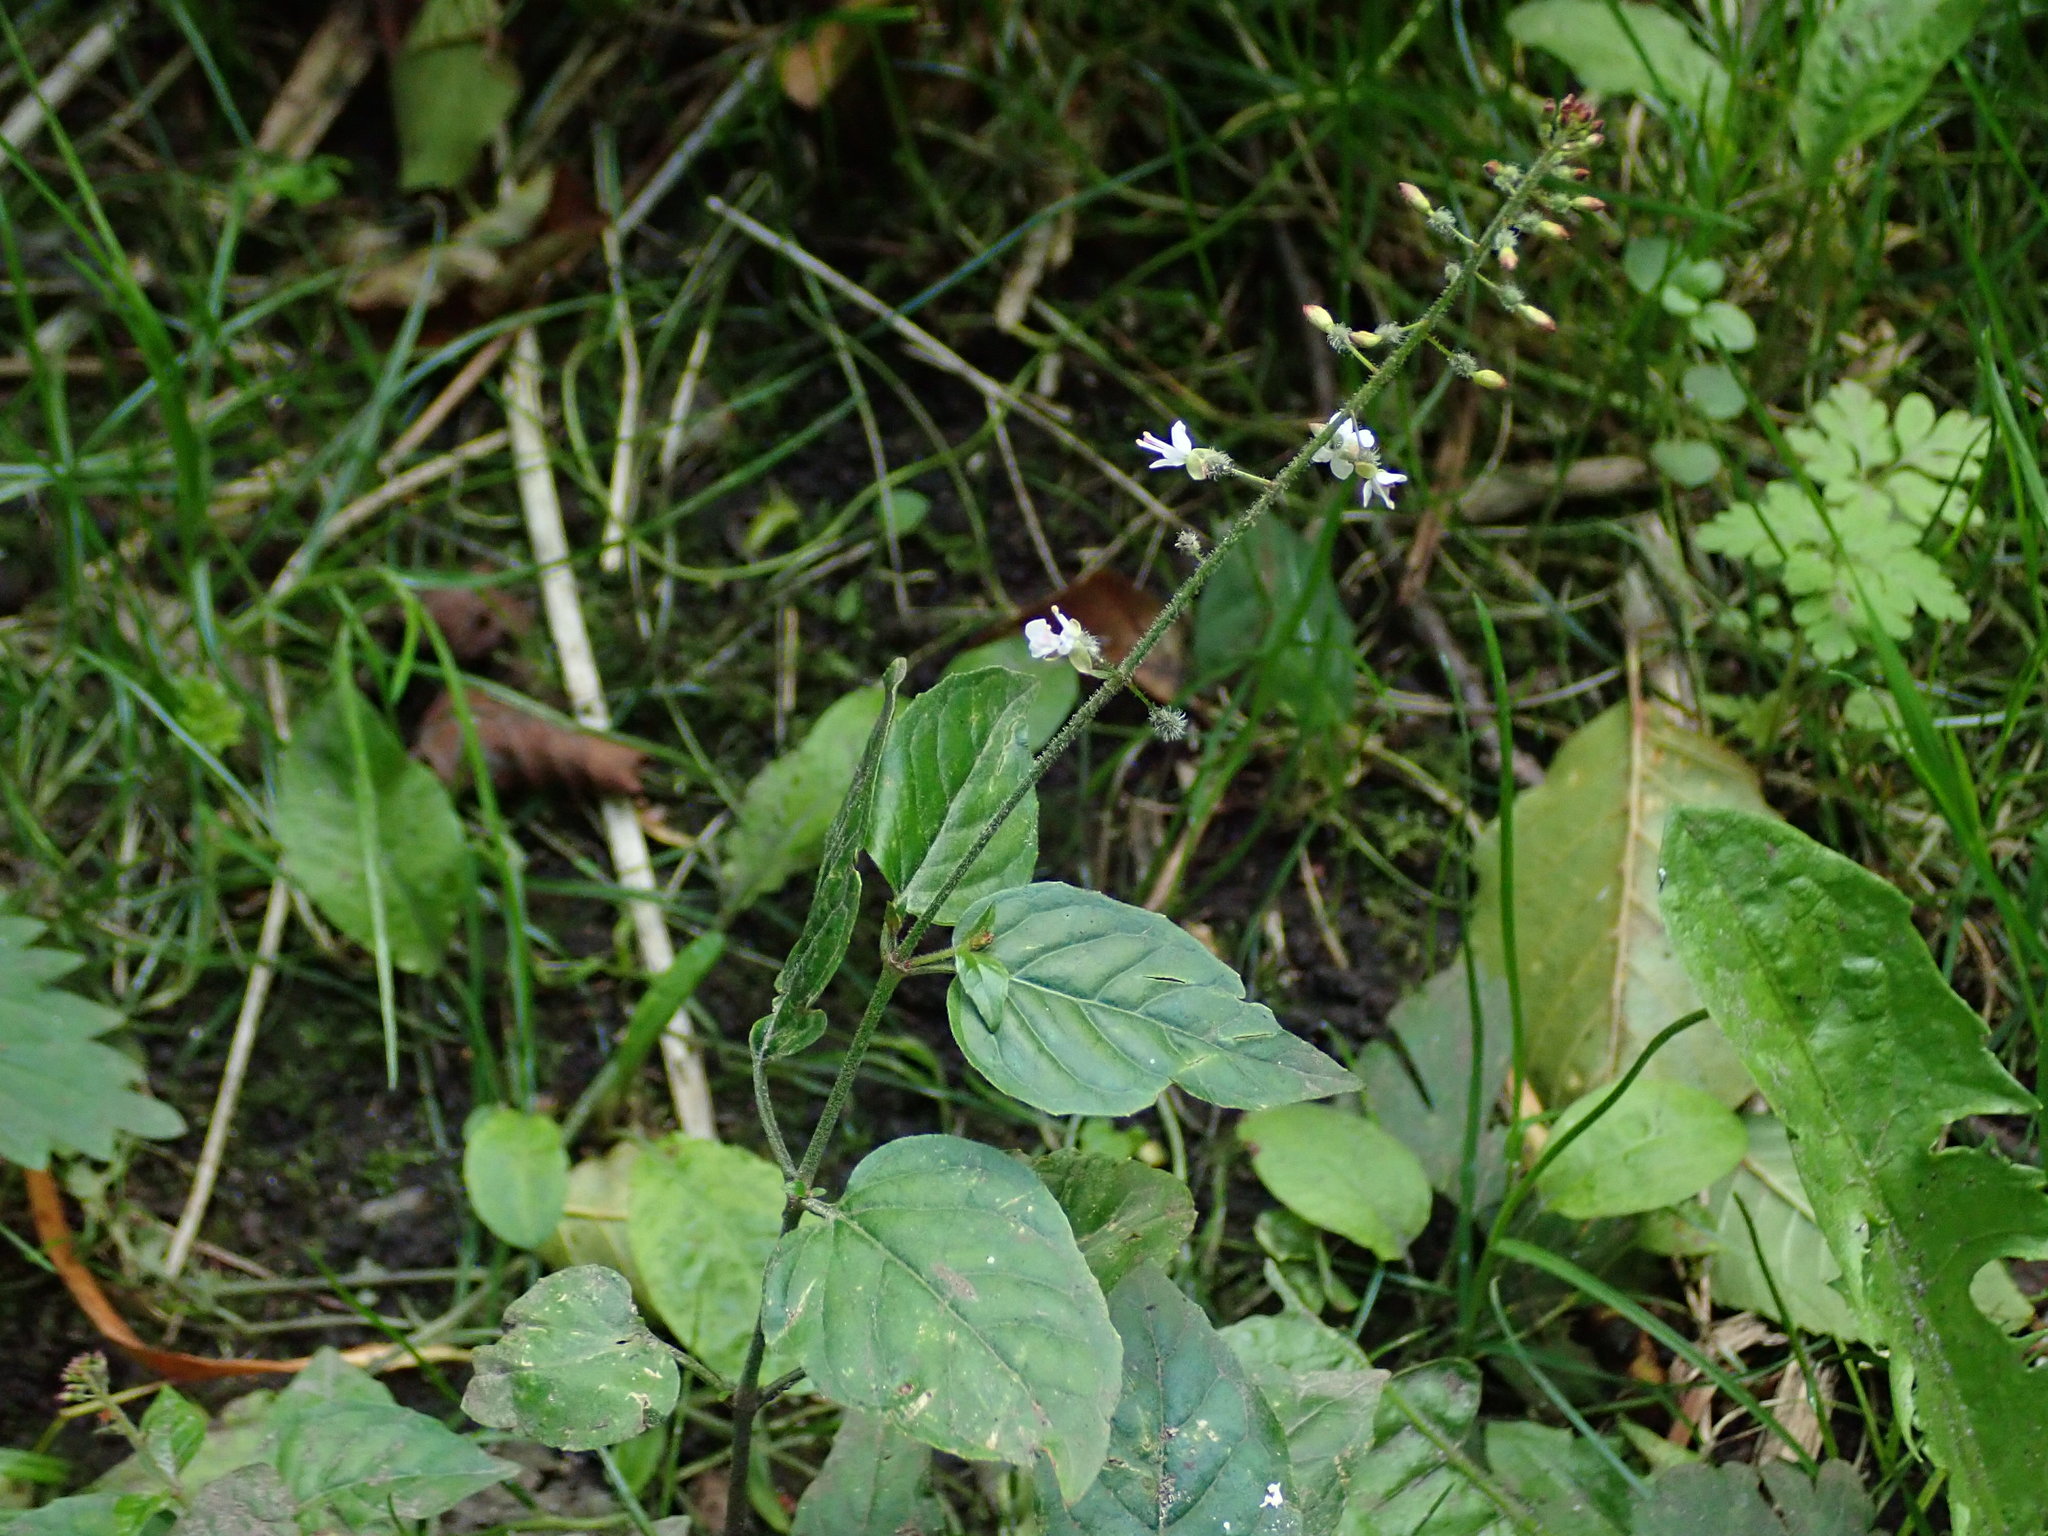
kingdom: Plantae
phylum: Tracheophyta
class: Magnoliopsida
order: Myrtales
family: Onagraceae
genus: Circaea
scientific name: Circaea lutetiana
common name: Enchanter's-nightshade
